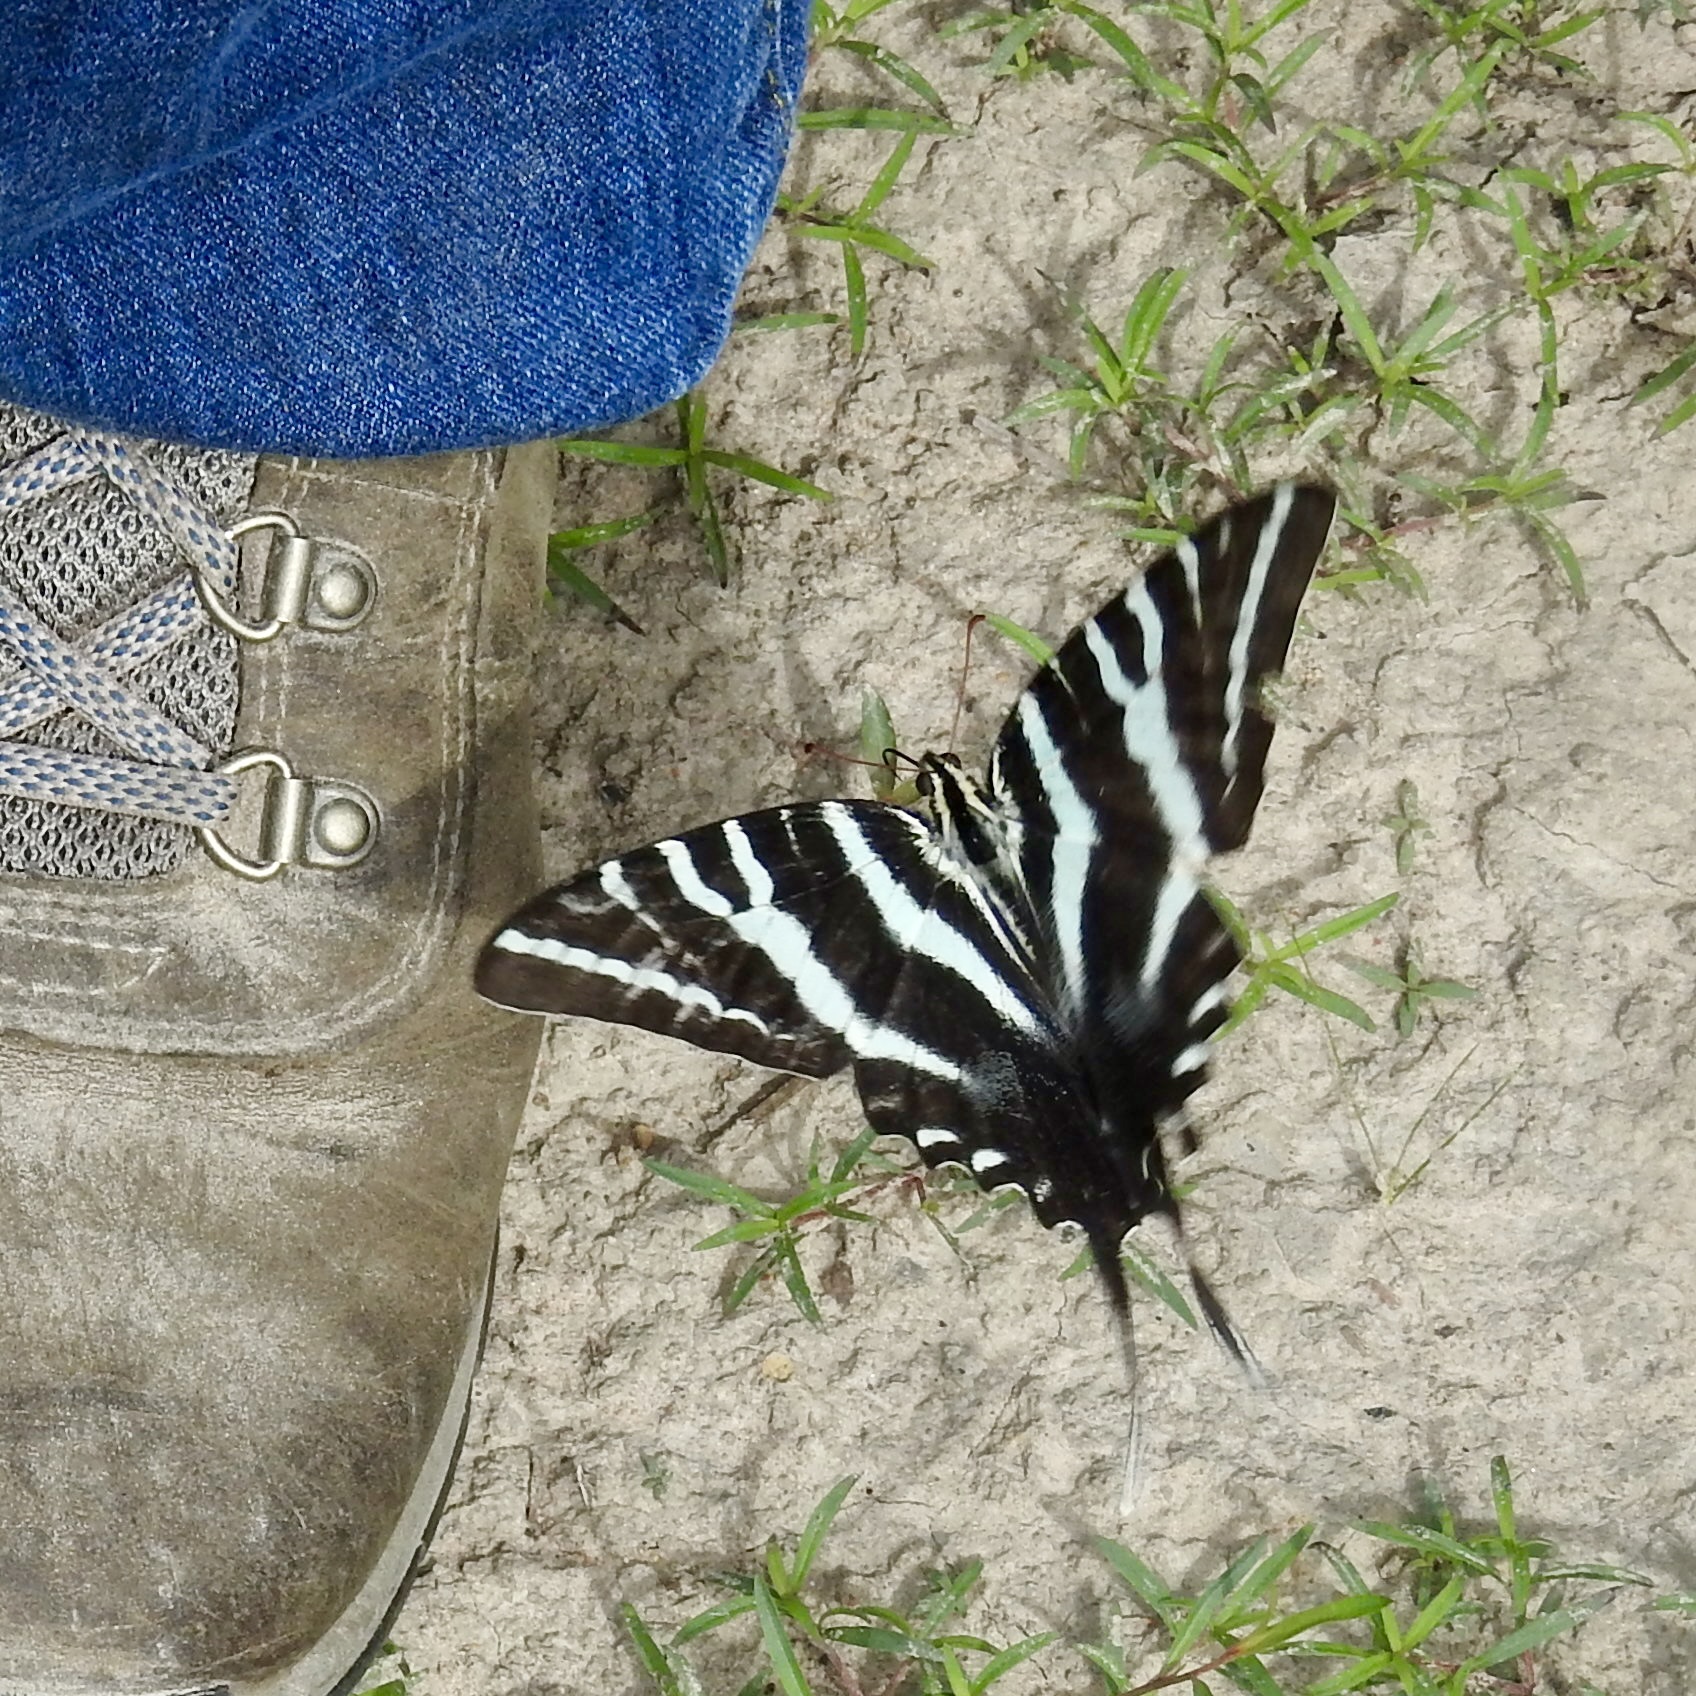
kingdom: Animalia
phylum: Arthropoda
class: Insecta
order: Lepidoptera
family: Papilionidae
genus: Protographium
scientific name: Protographium marcellus
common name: Zebra swallowtail
